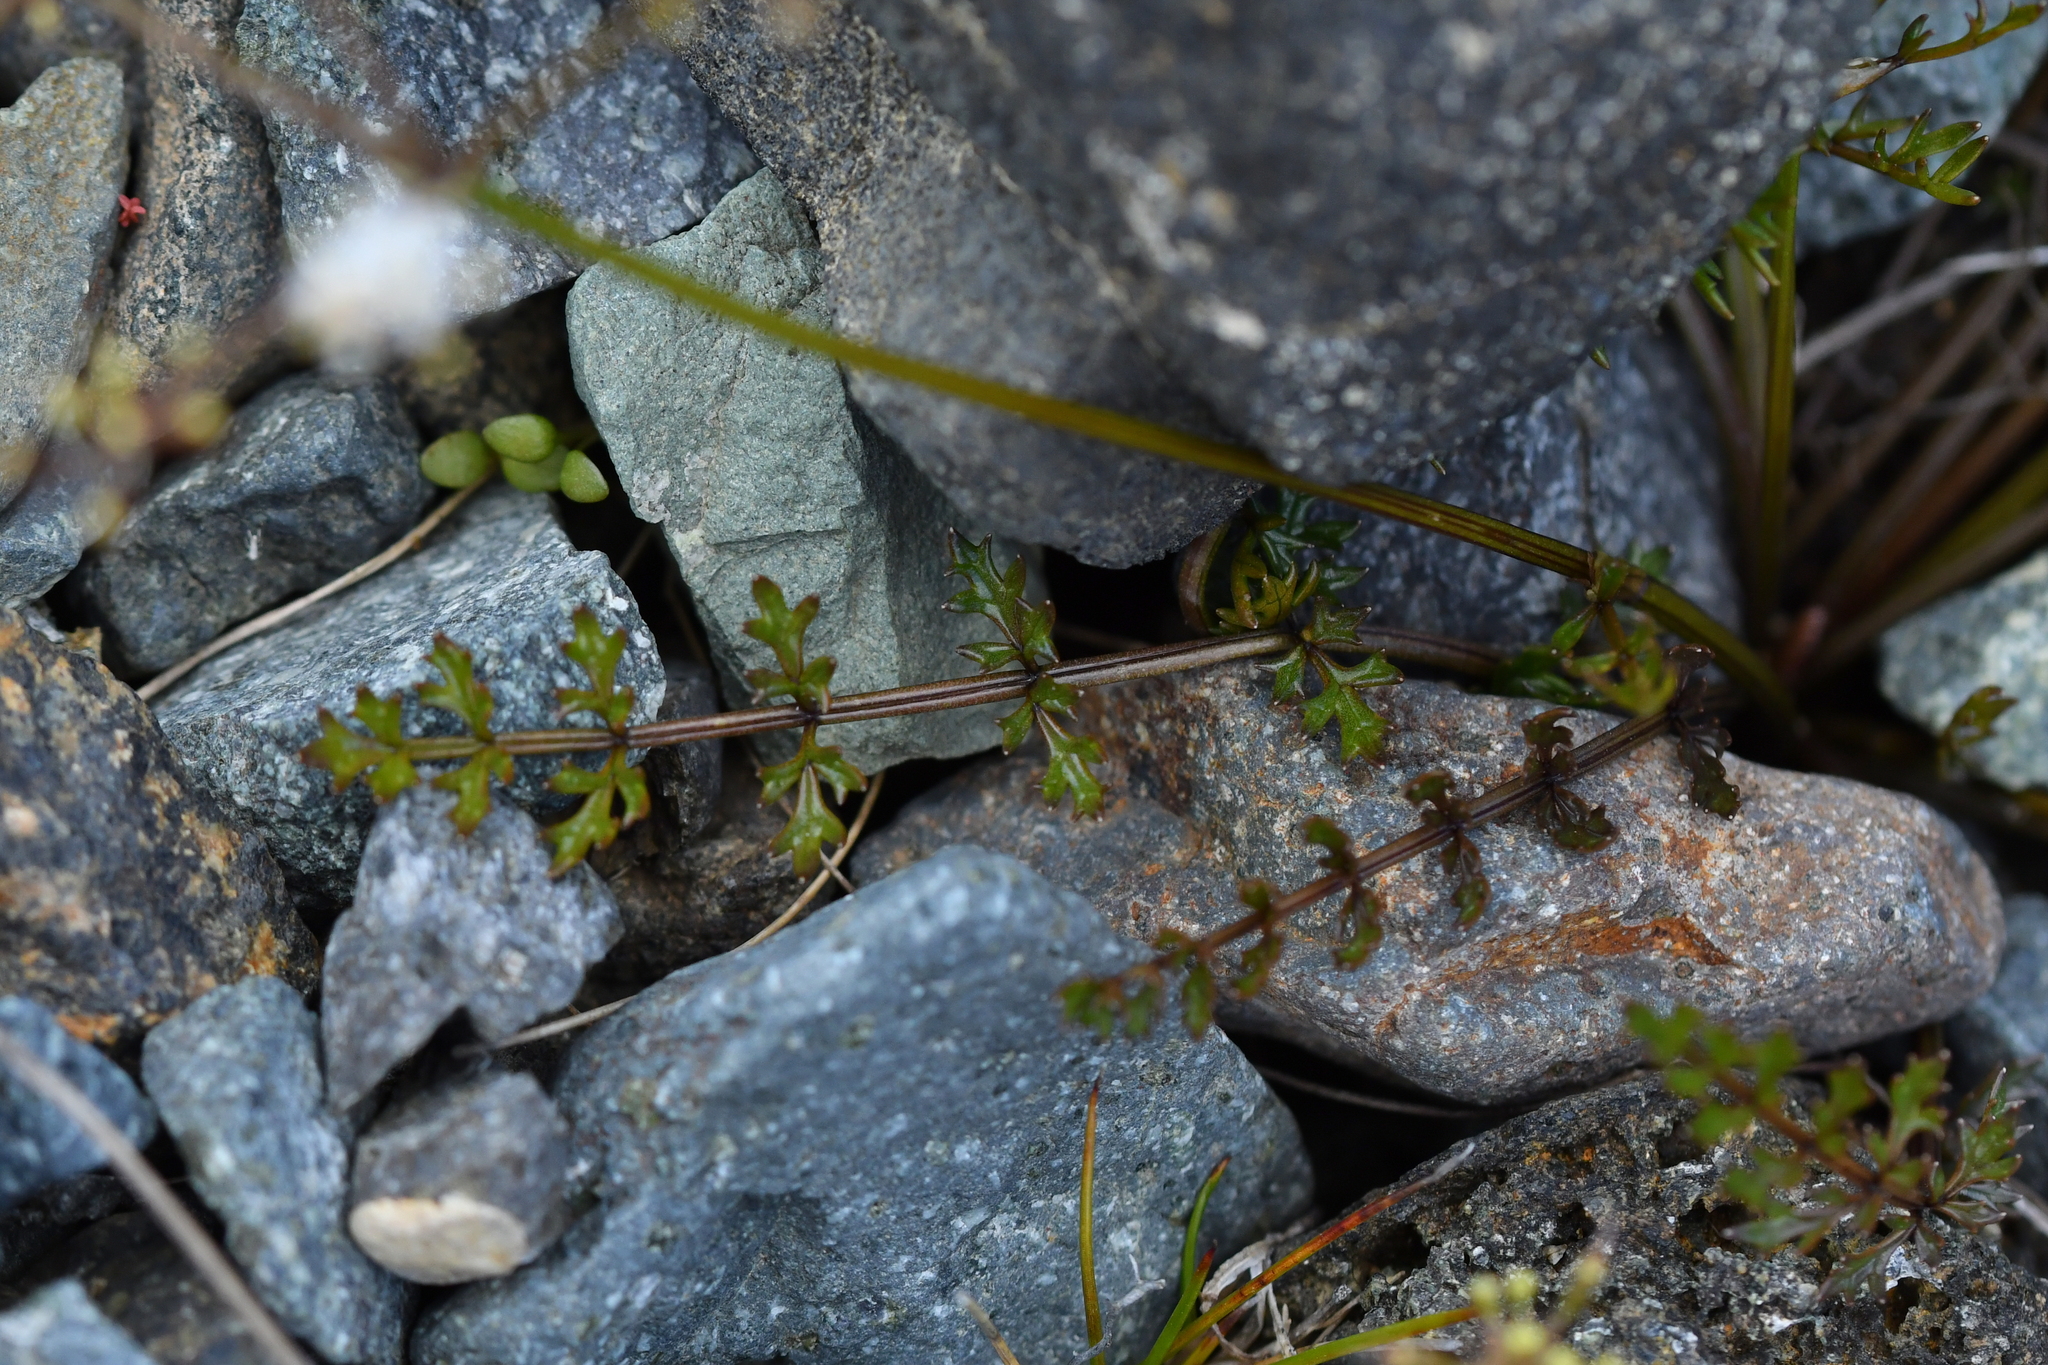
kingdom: Plantae
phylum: Tracheophyta
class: Magnoliopsida
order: Apiales
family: Apiaceae
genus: Gingidia
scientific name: Gingidia decipiens
